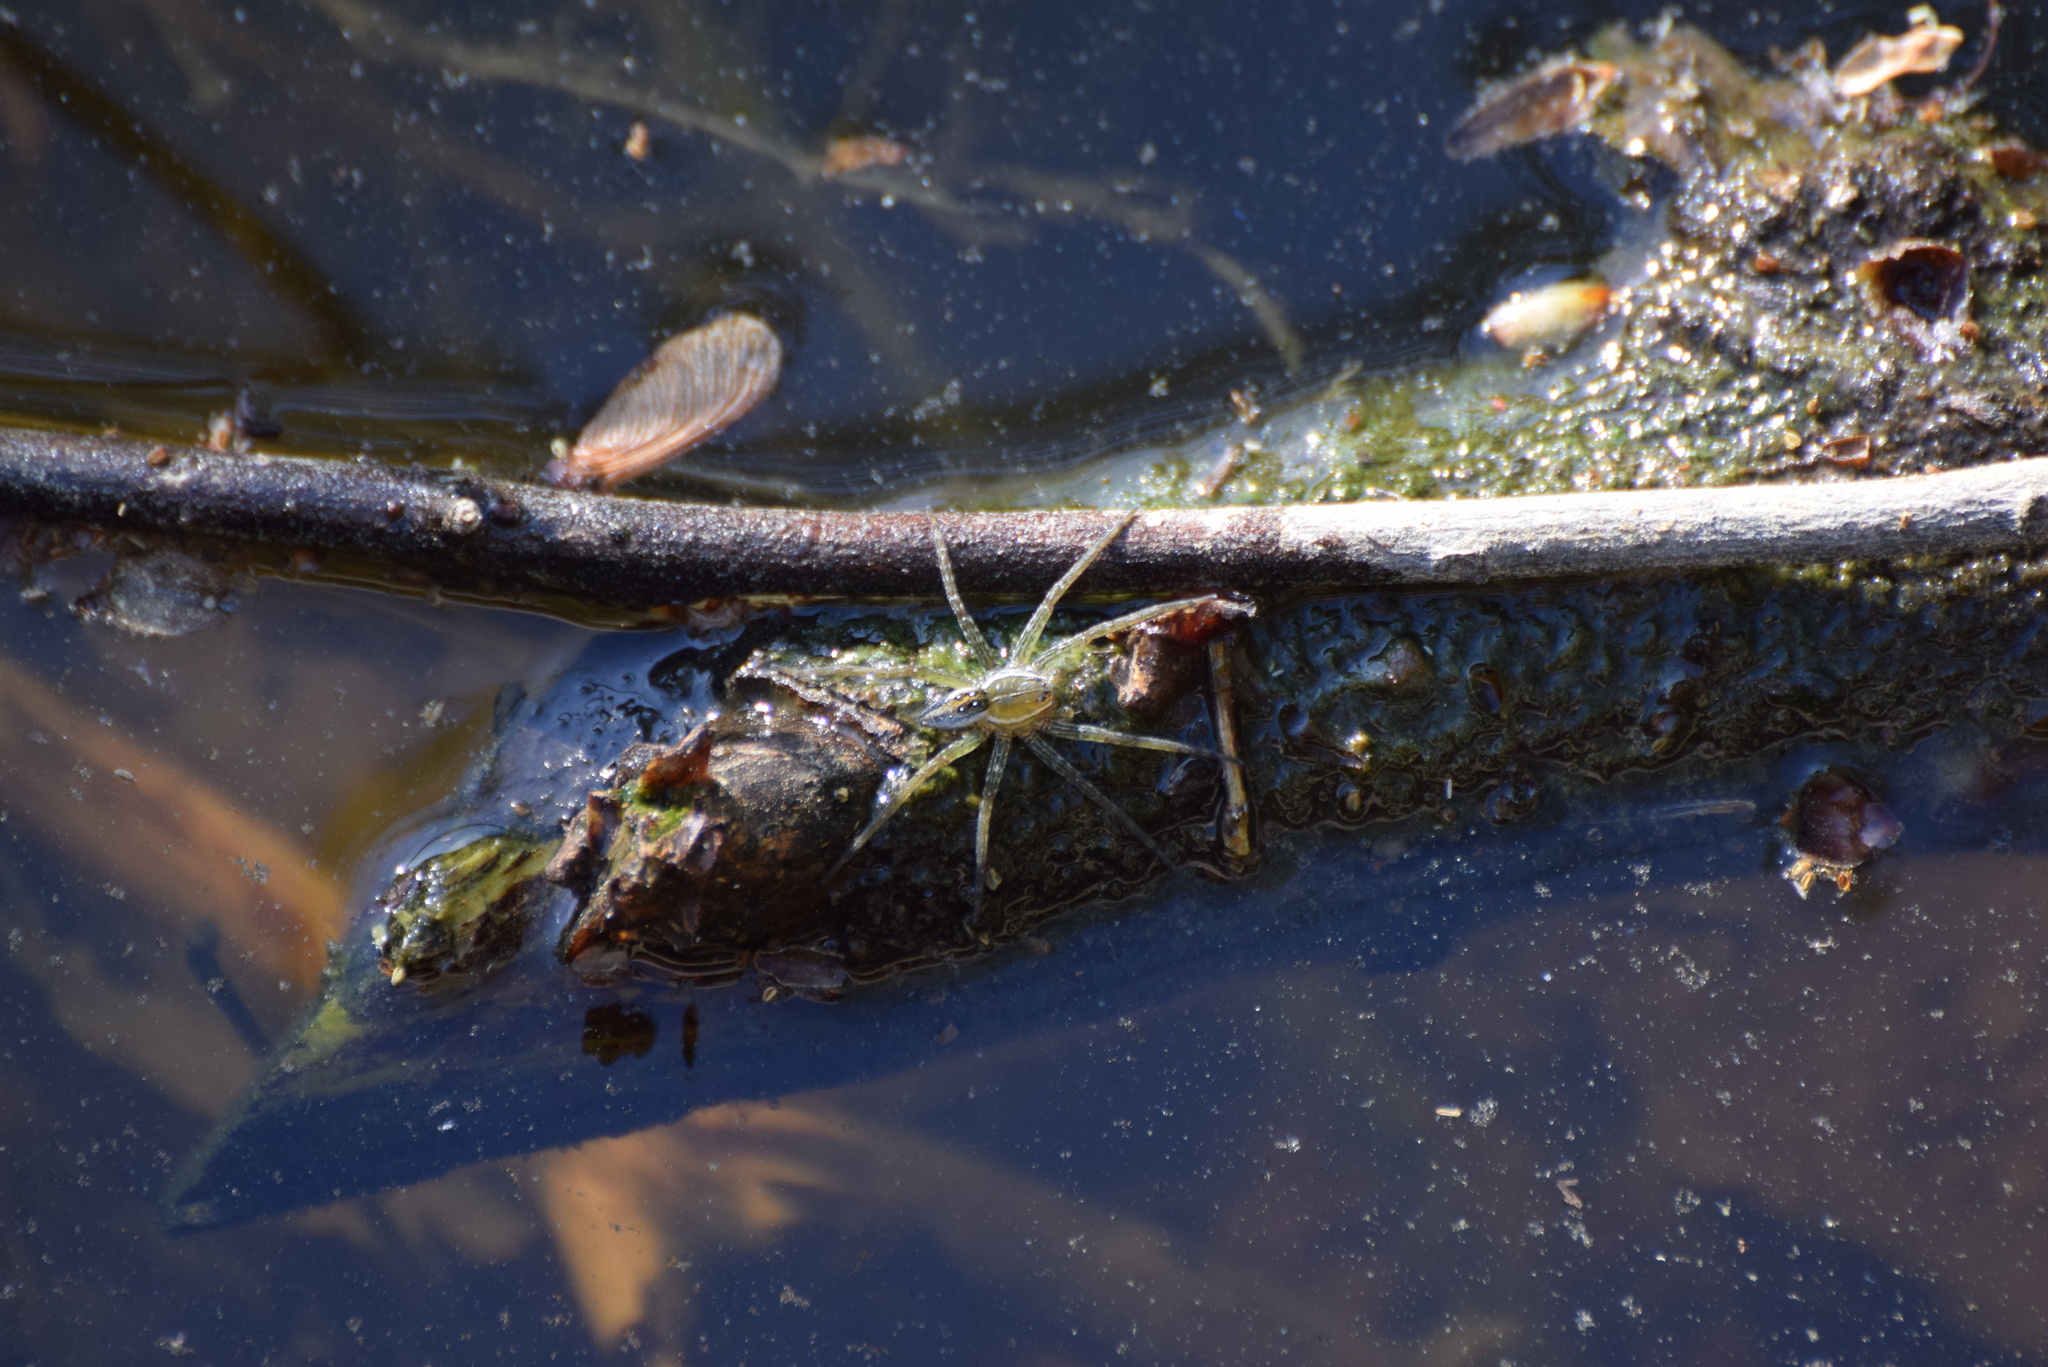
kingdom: Animalia
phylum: Arthropoda
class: Arachnida
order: Araneae
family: Pisauridae
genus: Dolomedes
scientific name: Dolomedes triton
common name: Six-spotted fishing spider
